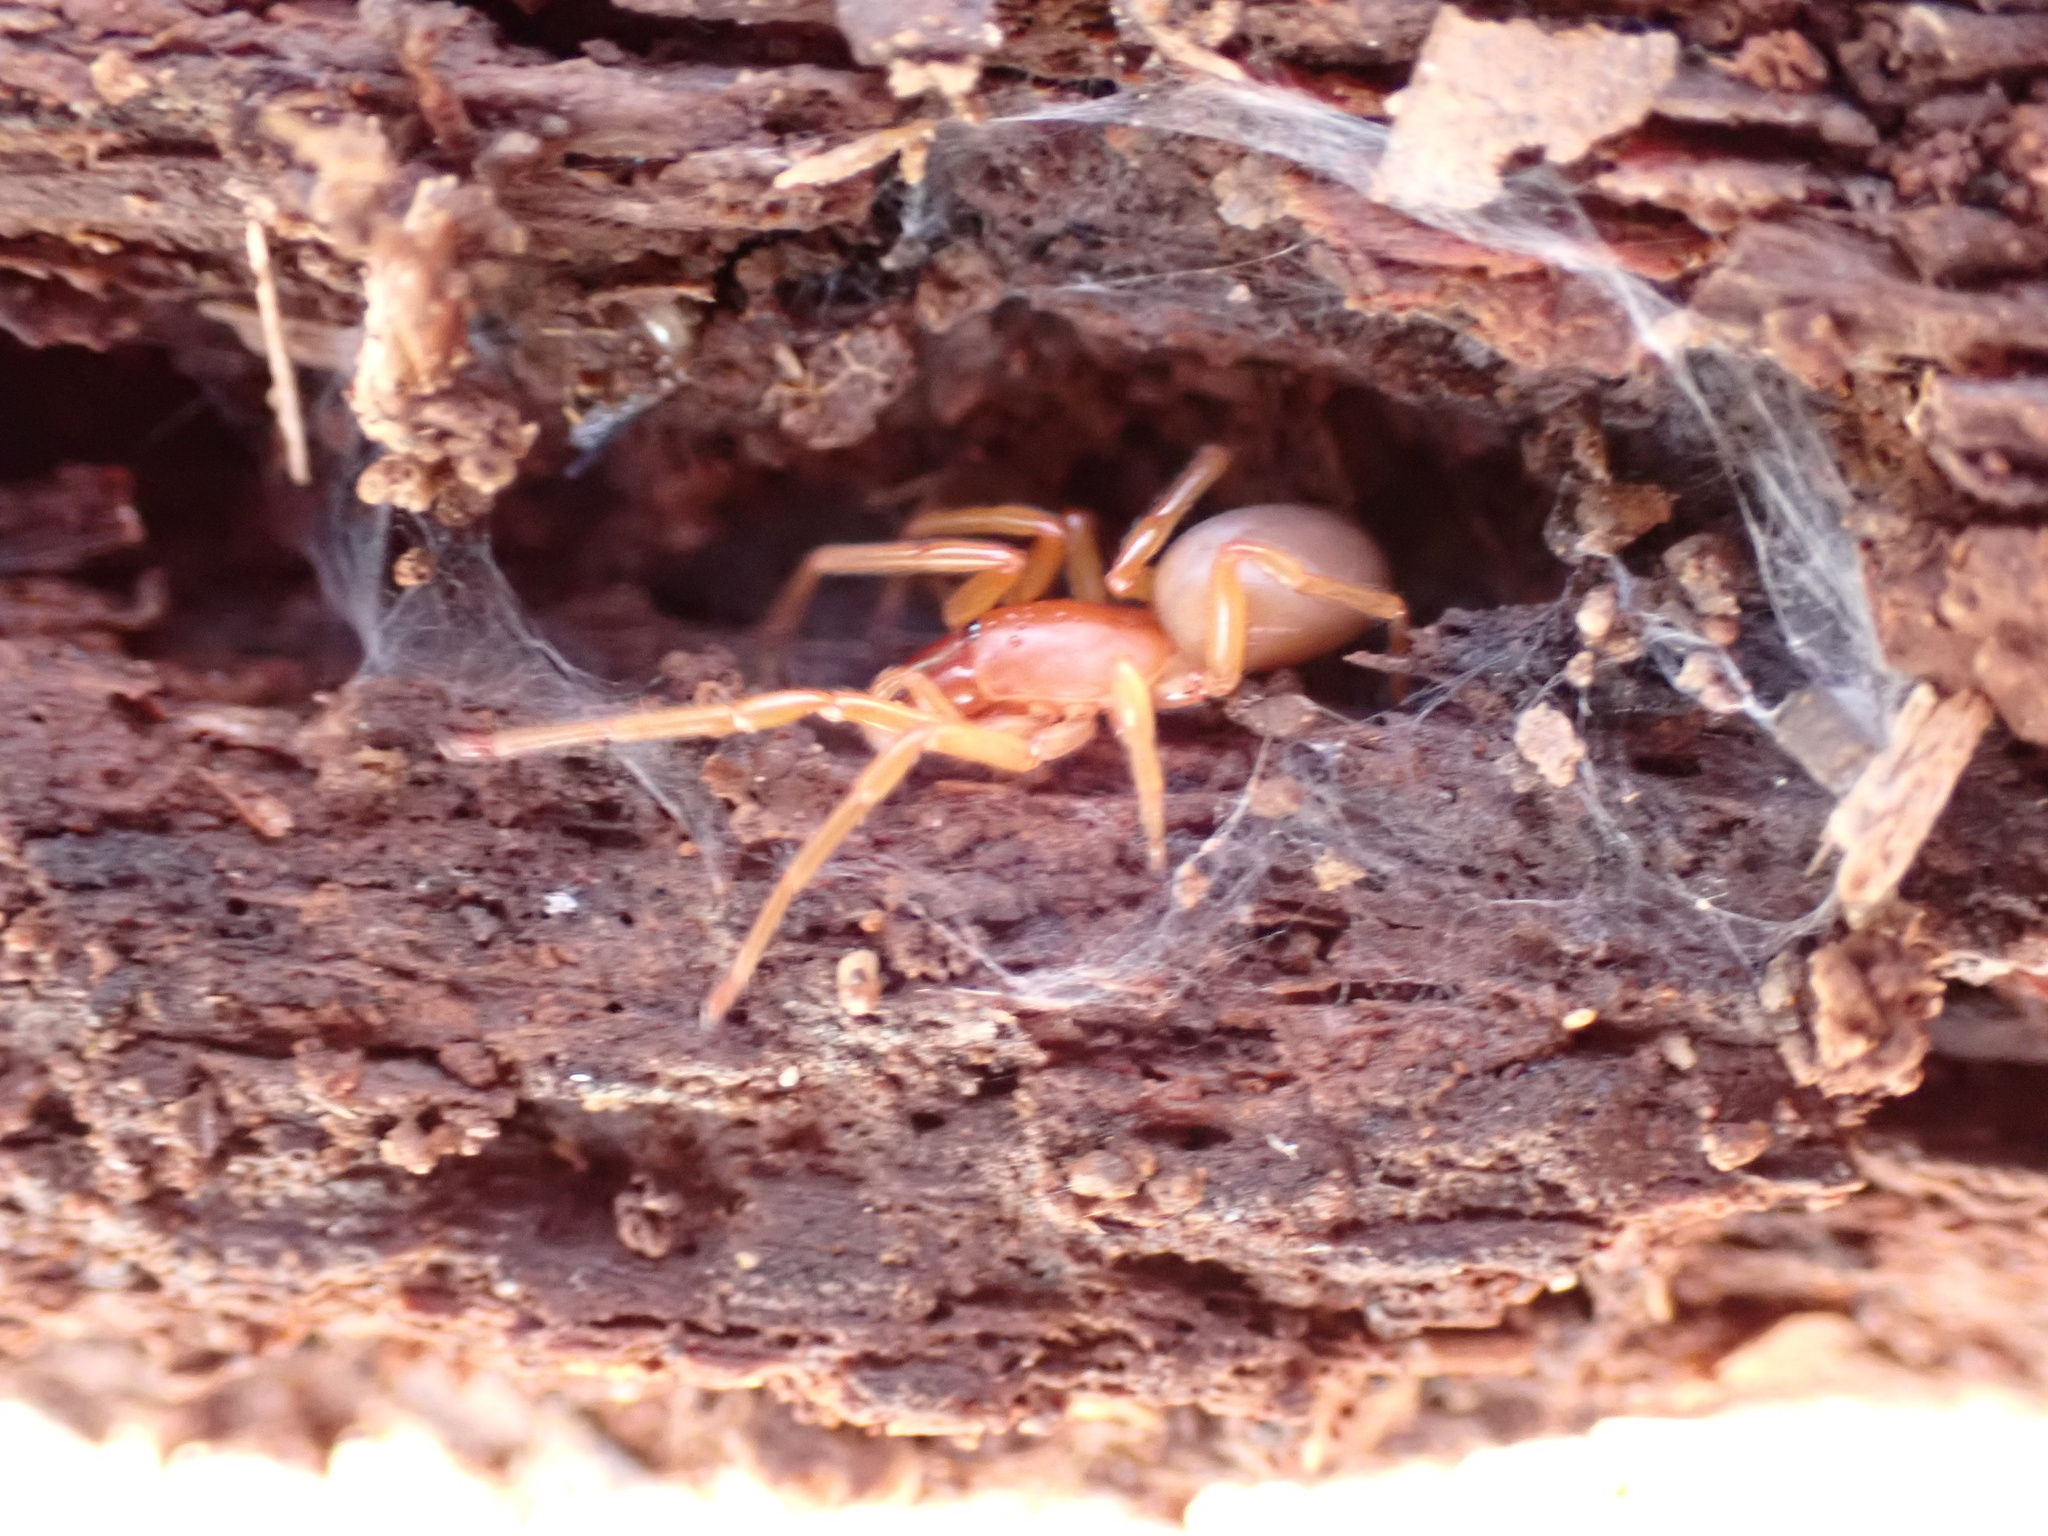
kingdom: Animalia
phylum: Arthropoda
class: Arachnida
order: Araneae
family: Dysderidae
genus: Dysdera
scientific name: Dysdera crocata
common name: Woodlouse spider
